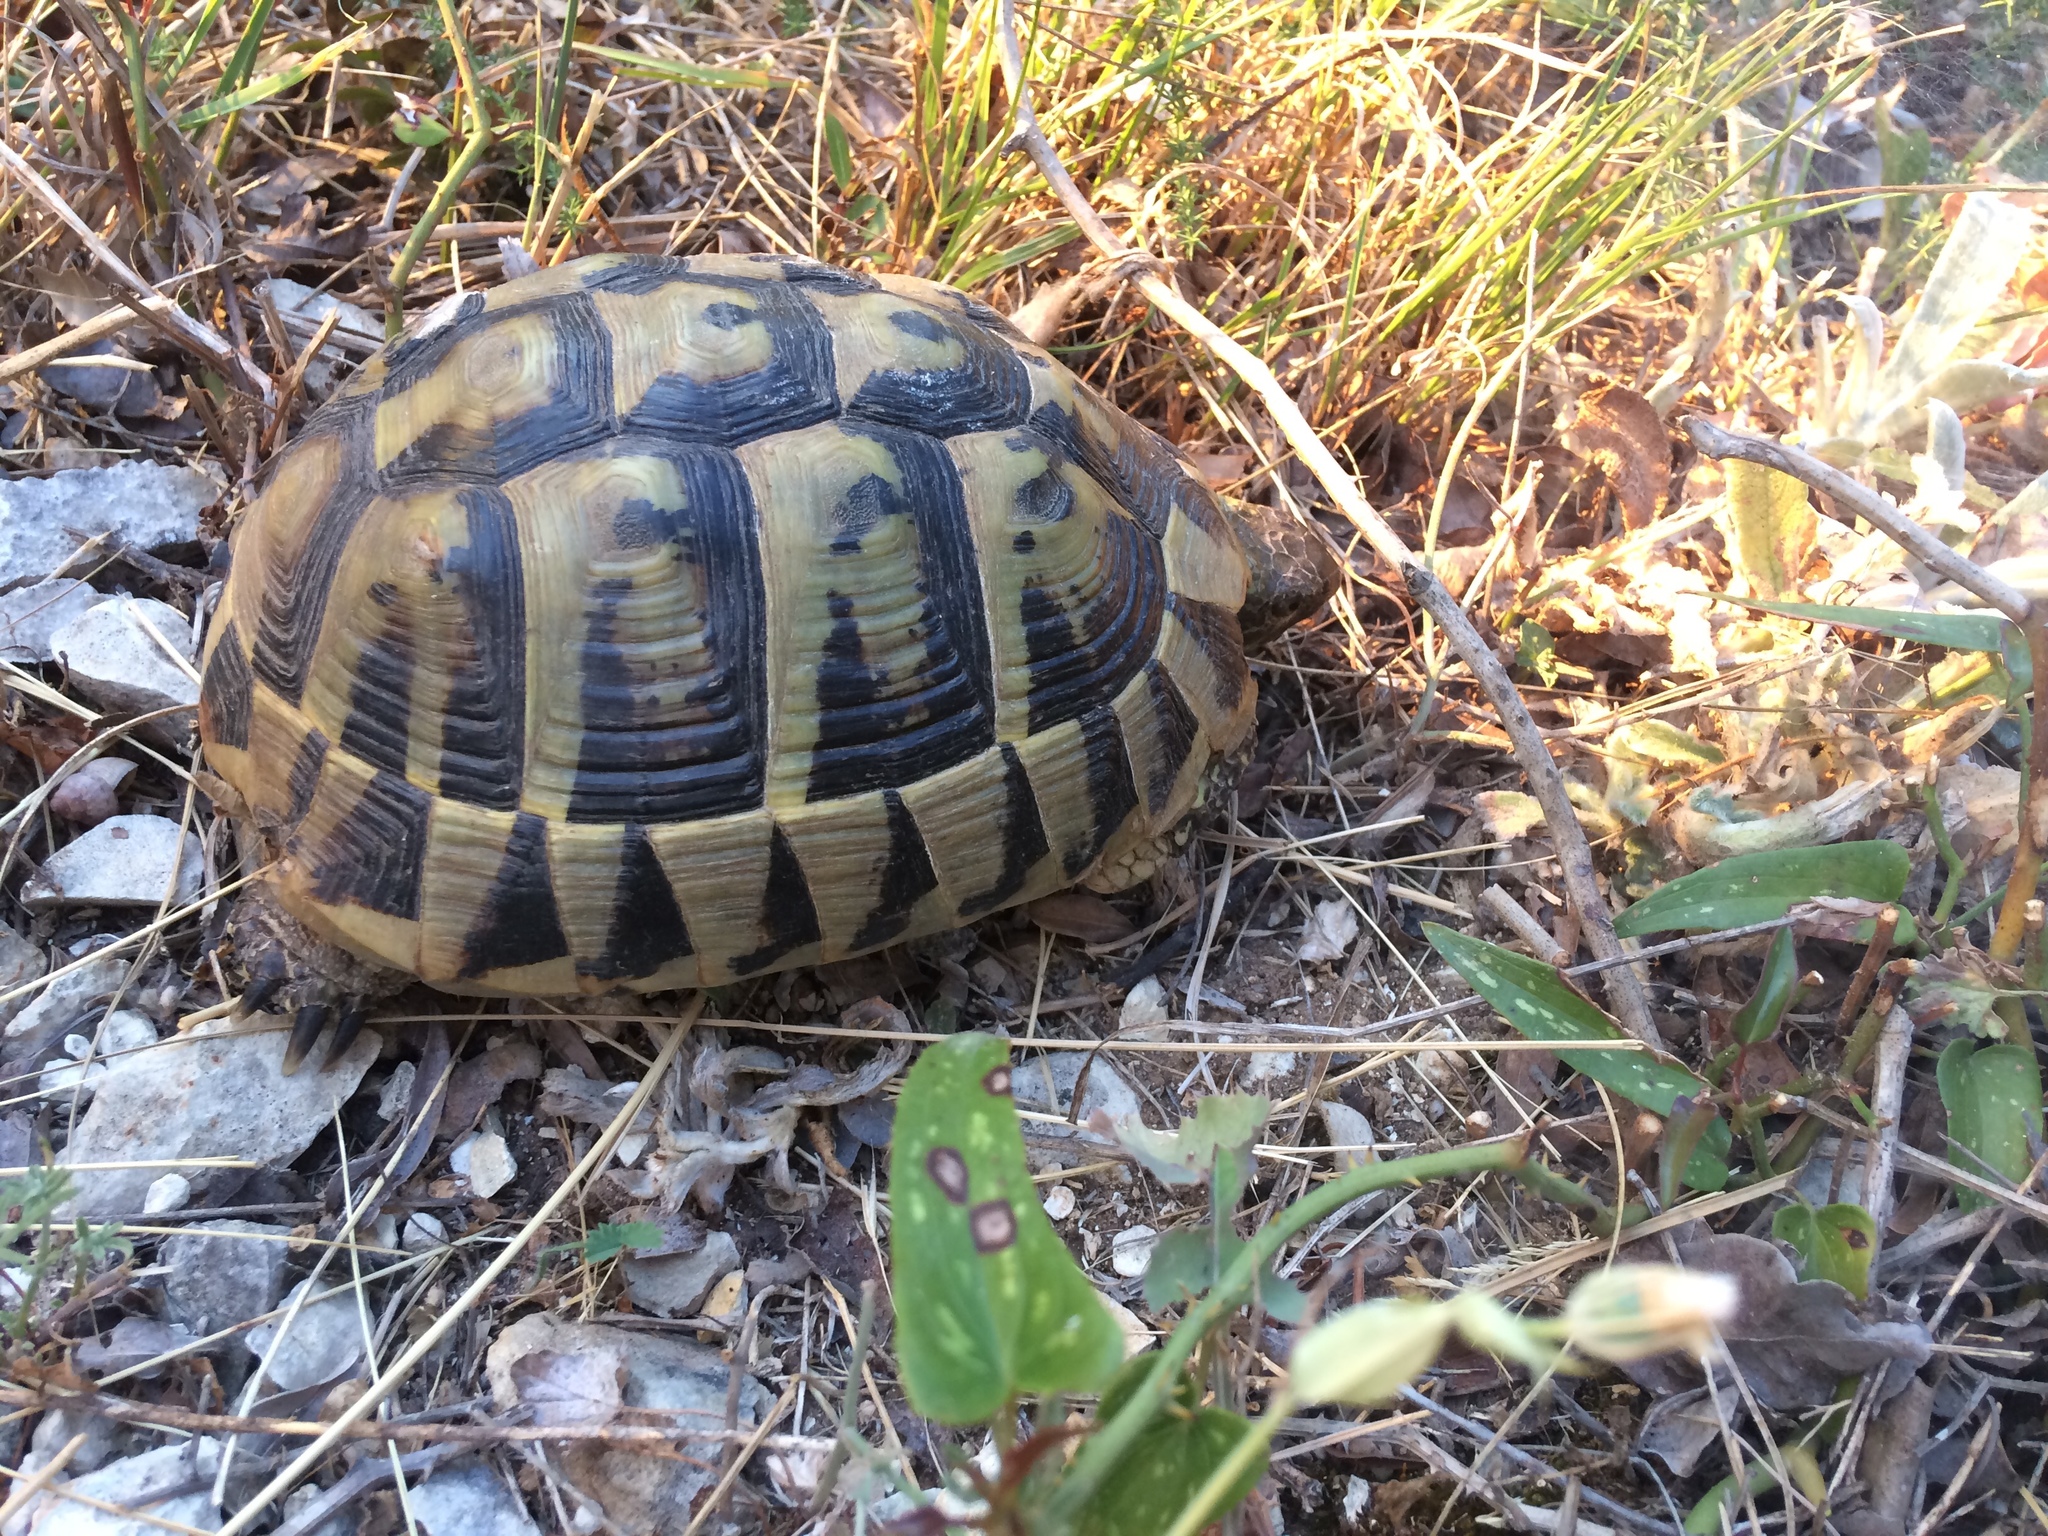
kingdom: Animalia
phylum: Chordata
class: Testudines
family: Testudinidae
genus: Testudo
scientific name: Testudo hermanni
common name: Hermann's tortoise
